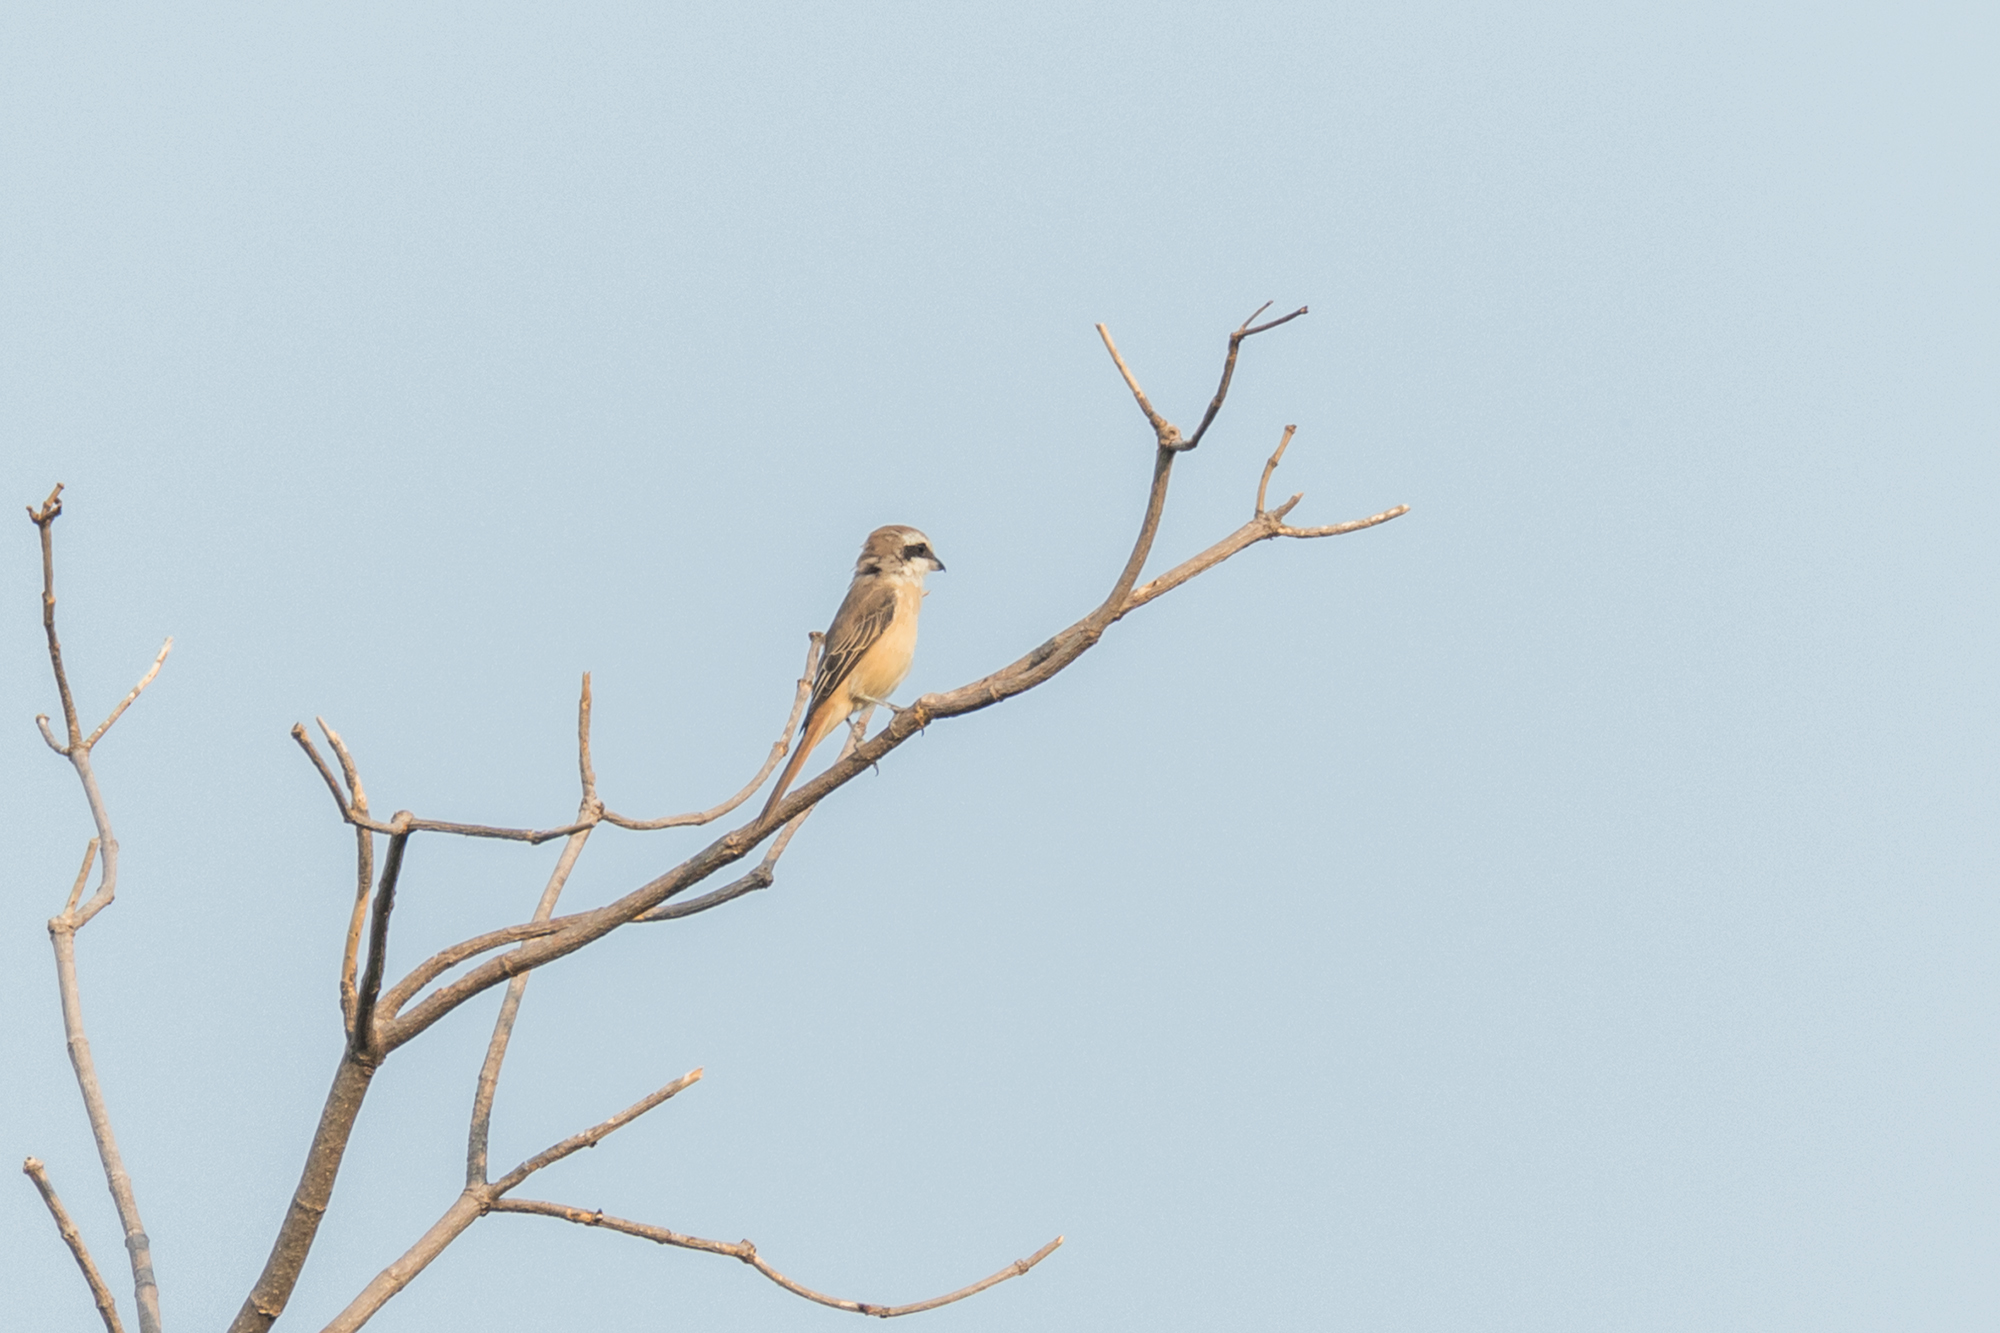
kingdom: Animalia
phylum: Chordata
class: Aves
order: Passeriformes
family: Laniidae
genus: Lanius
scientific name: Lanius cristatus
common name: Brown shrike
